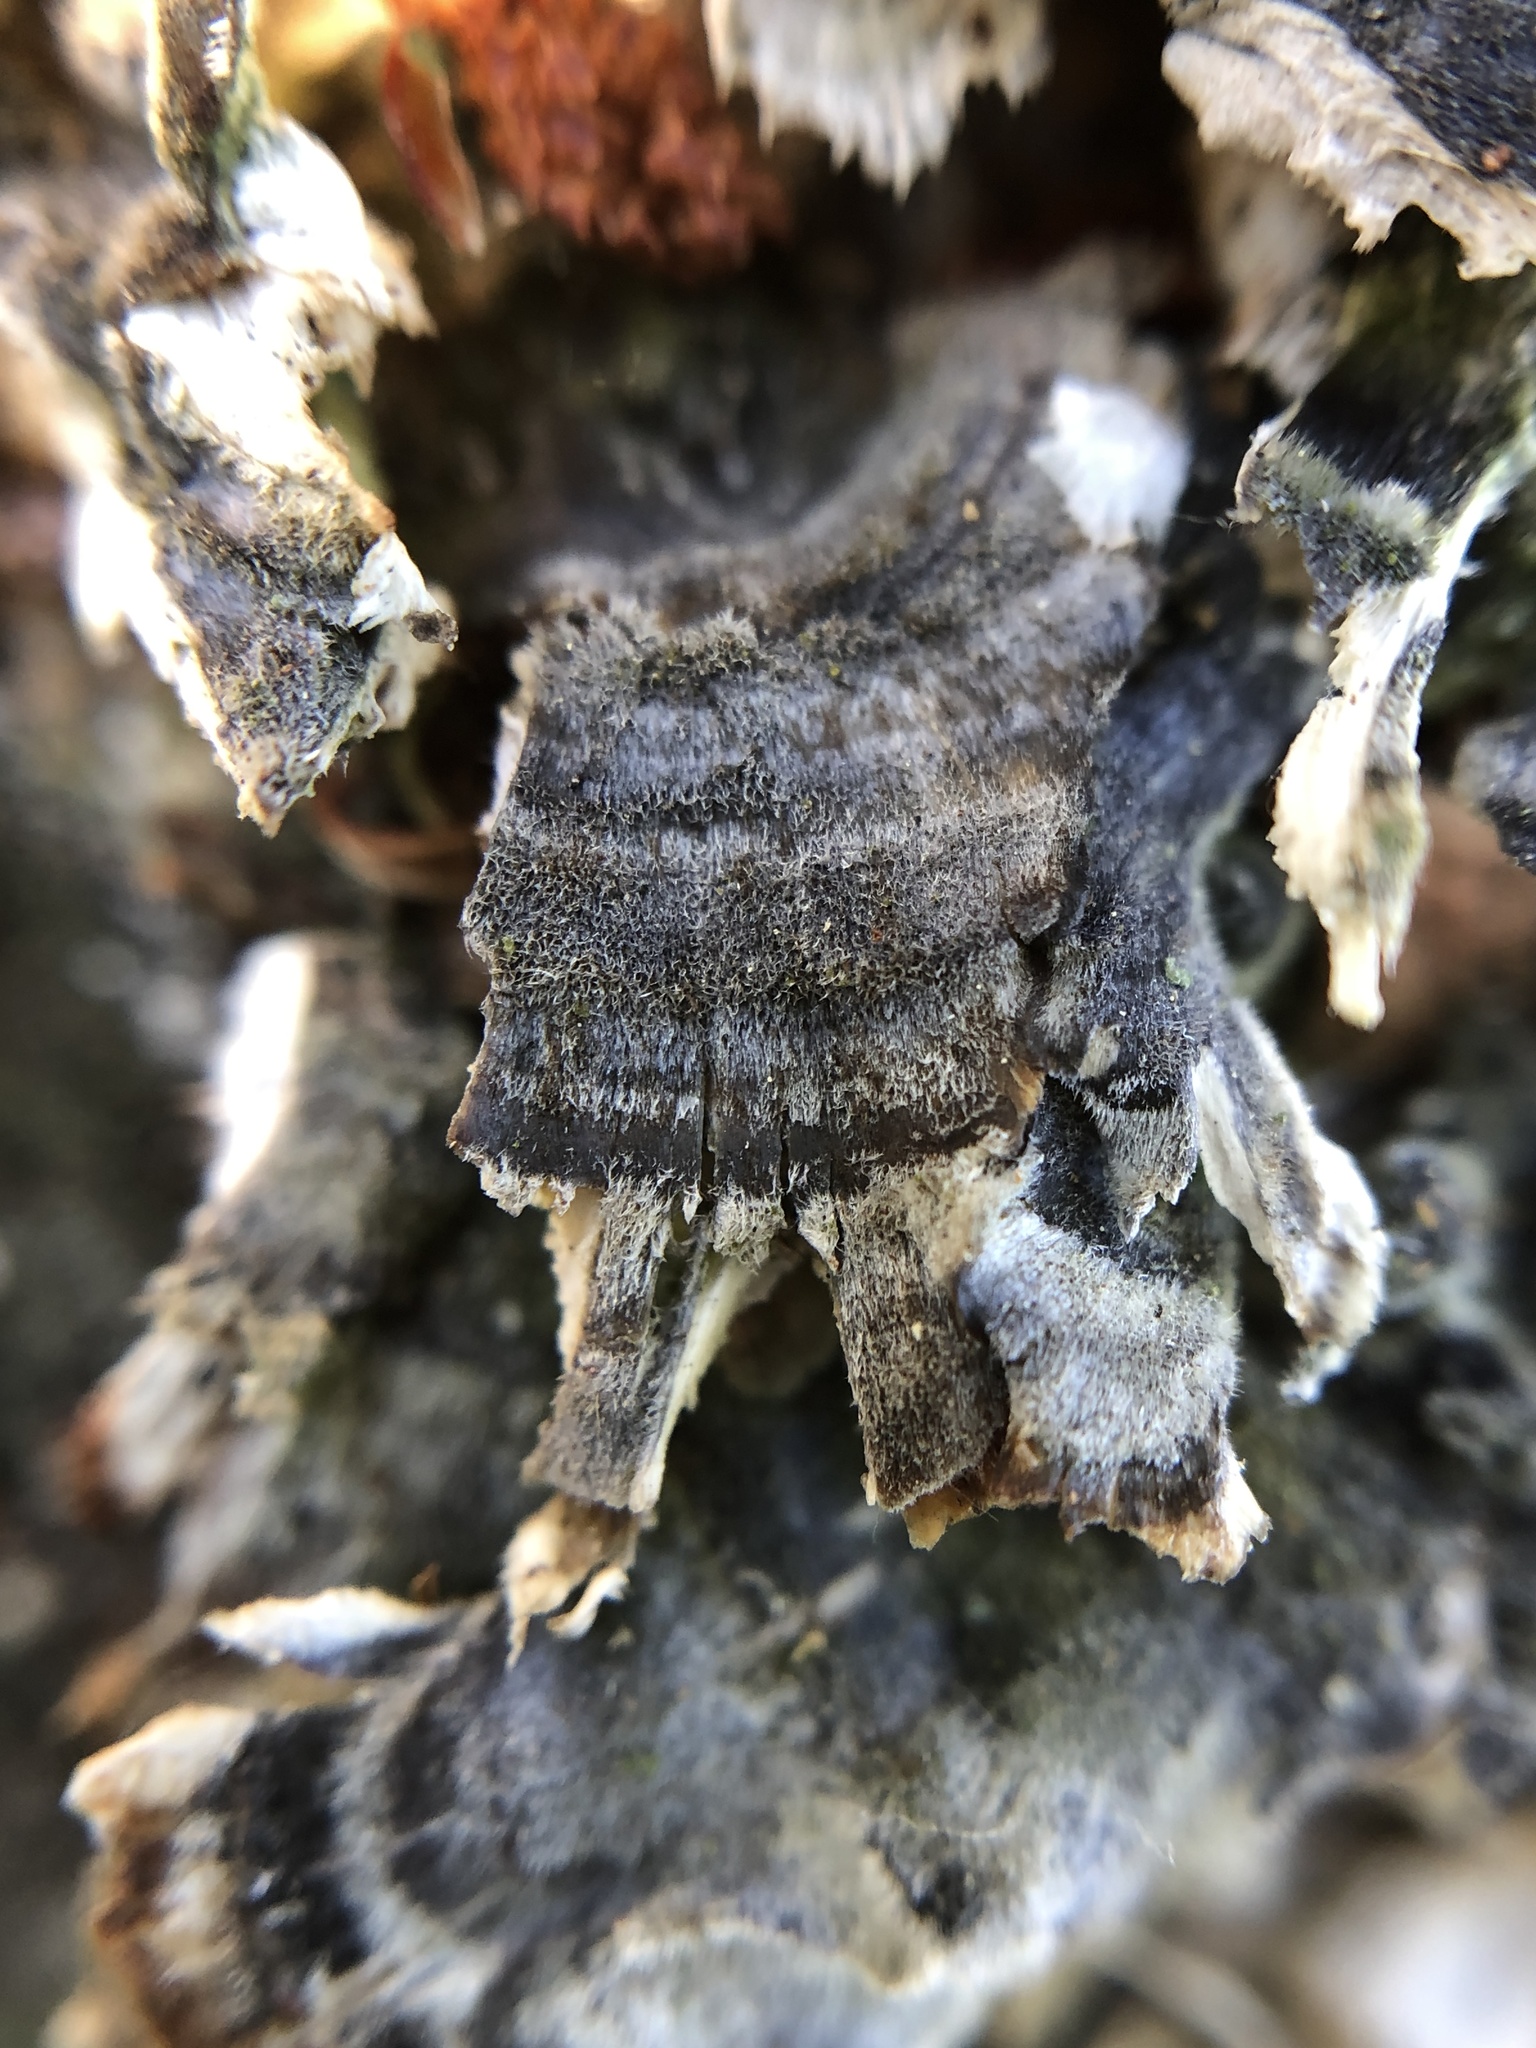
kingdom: Fungi
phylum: Basidiomycota
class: Agaricomycetes
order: Polyporales
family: Polyporaceae
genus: Trametes
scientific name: Trametes versicolor
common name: Turkeytail
